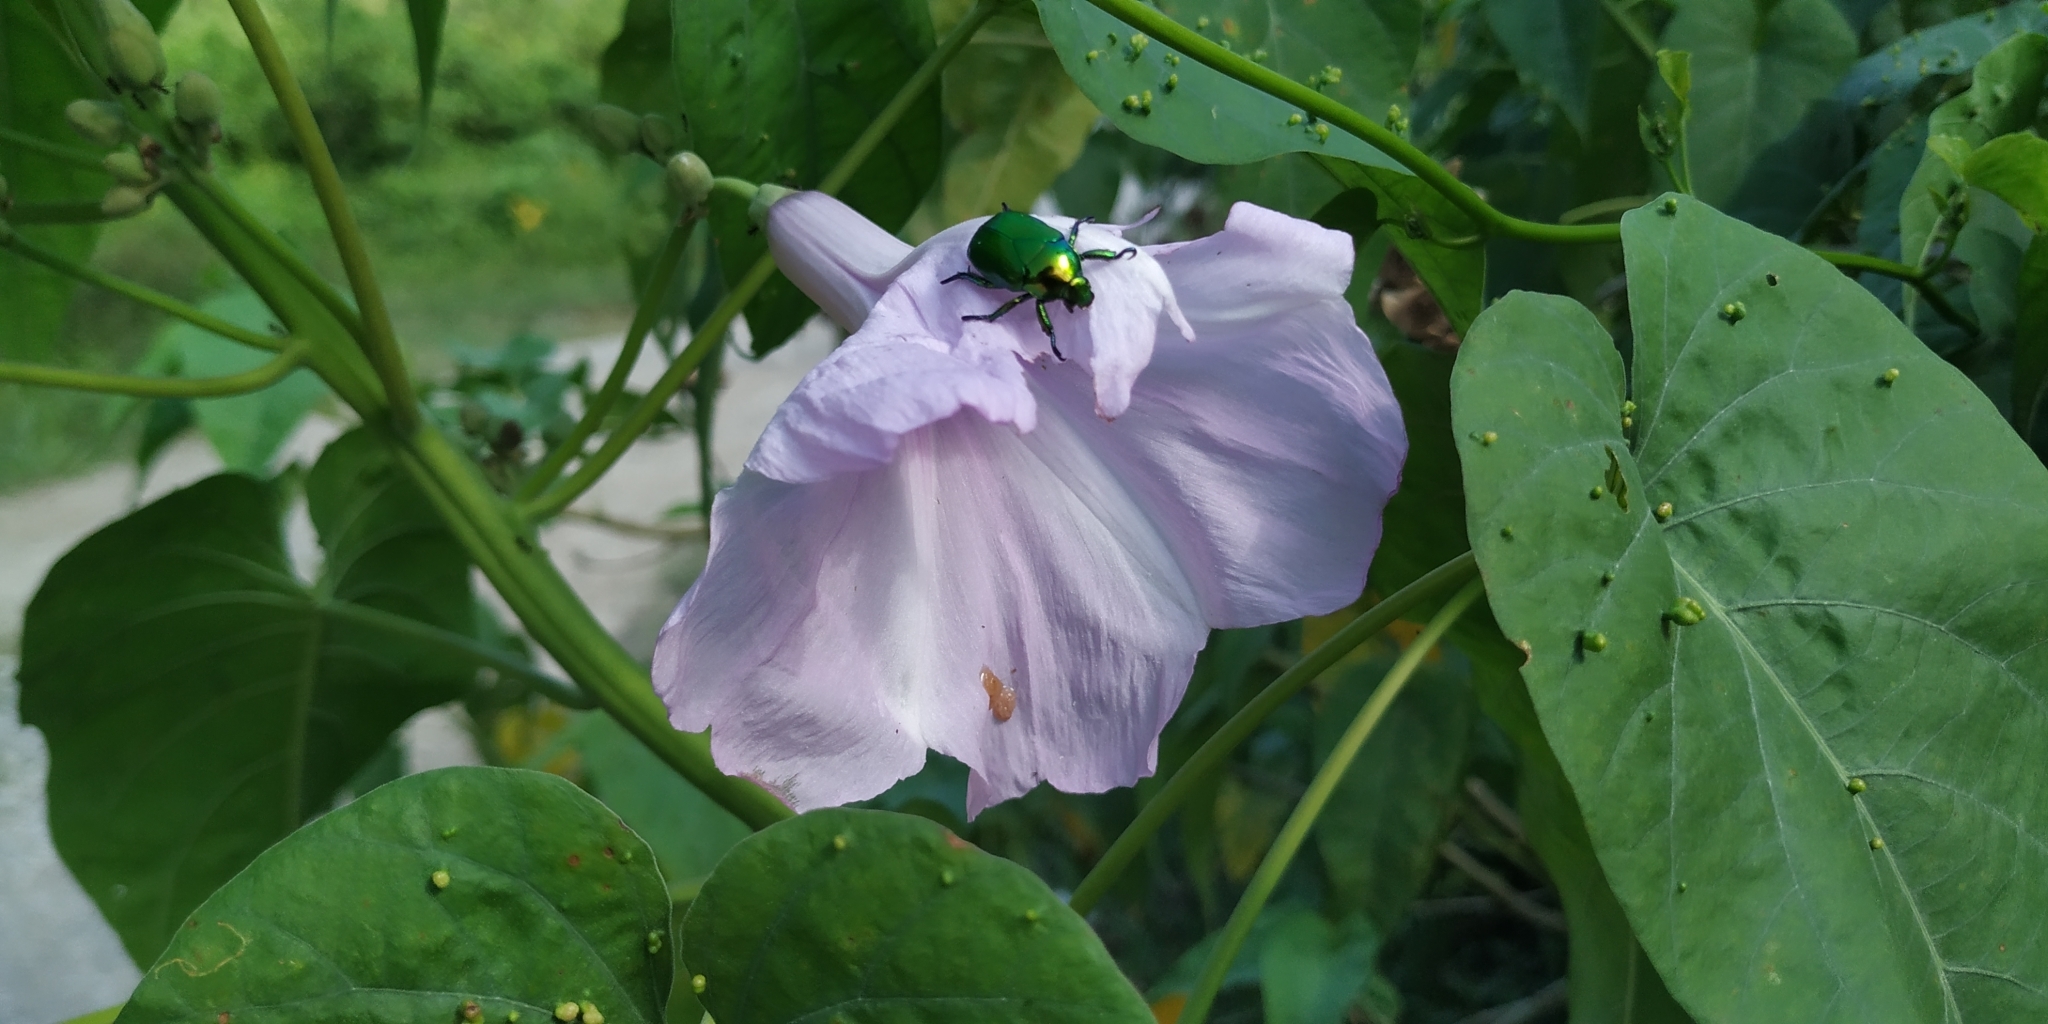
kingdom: Plantae
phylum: Tracheophyta
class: Magnoliopsida
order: Solanales
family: Convolvulaceae
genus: Ipomoea
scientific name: Ipomoea carnea
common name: Morning-glory
